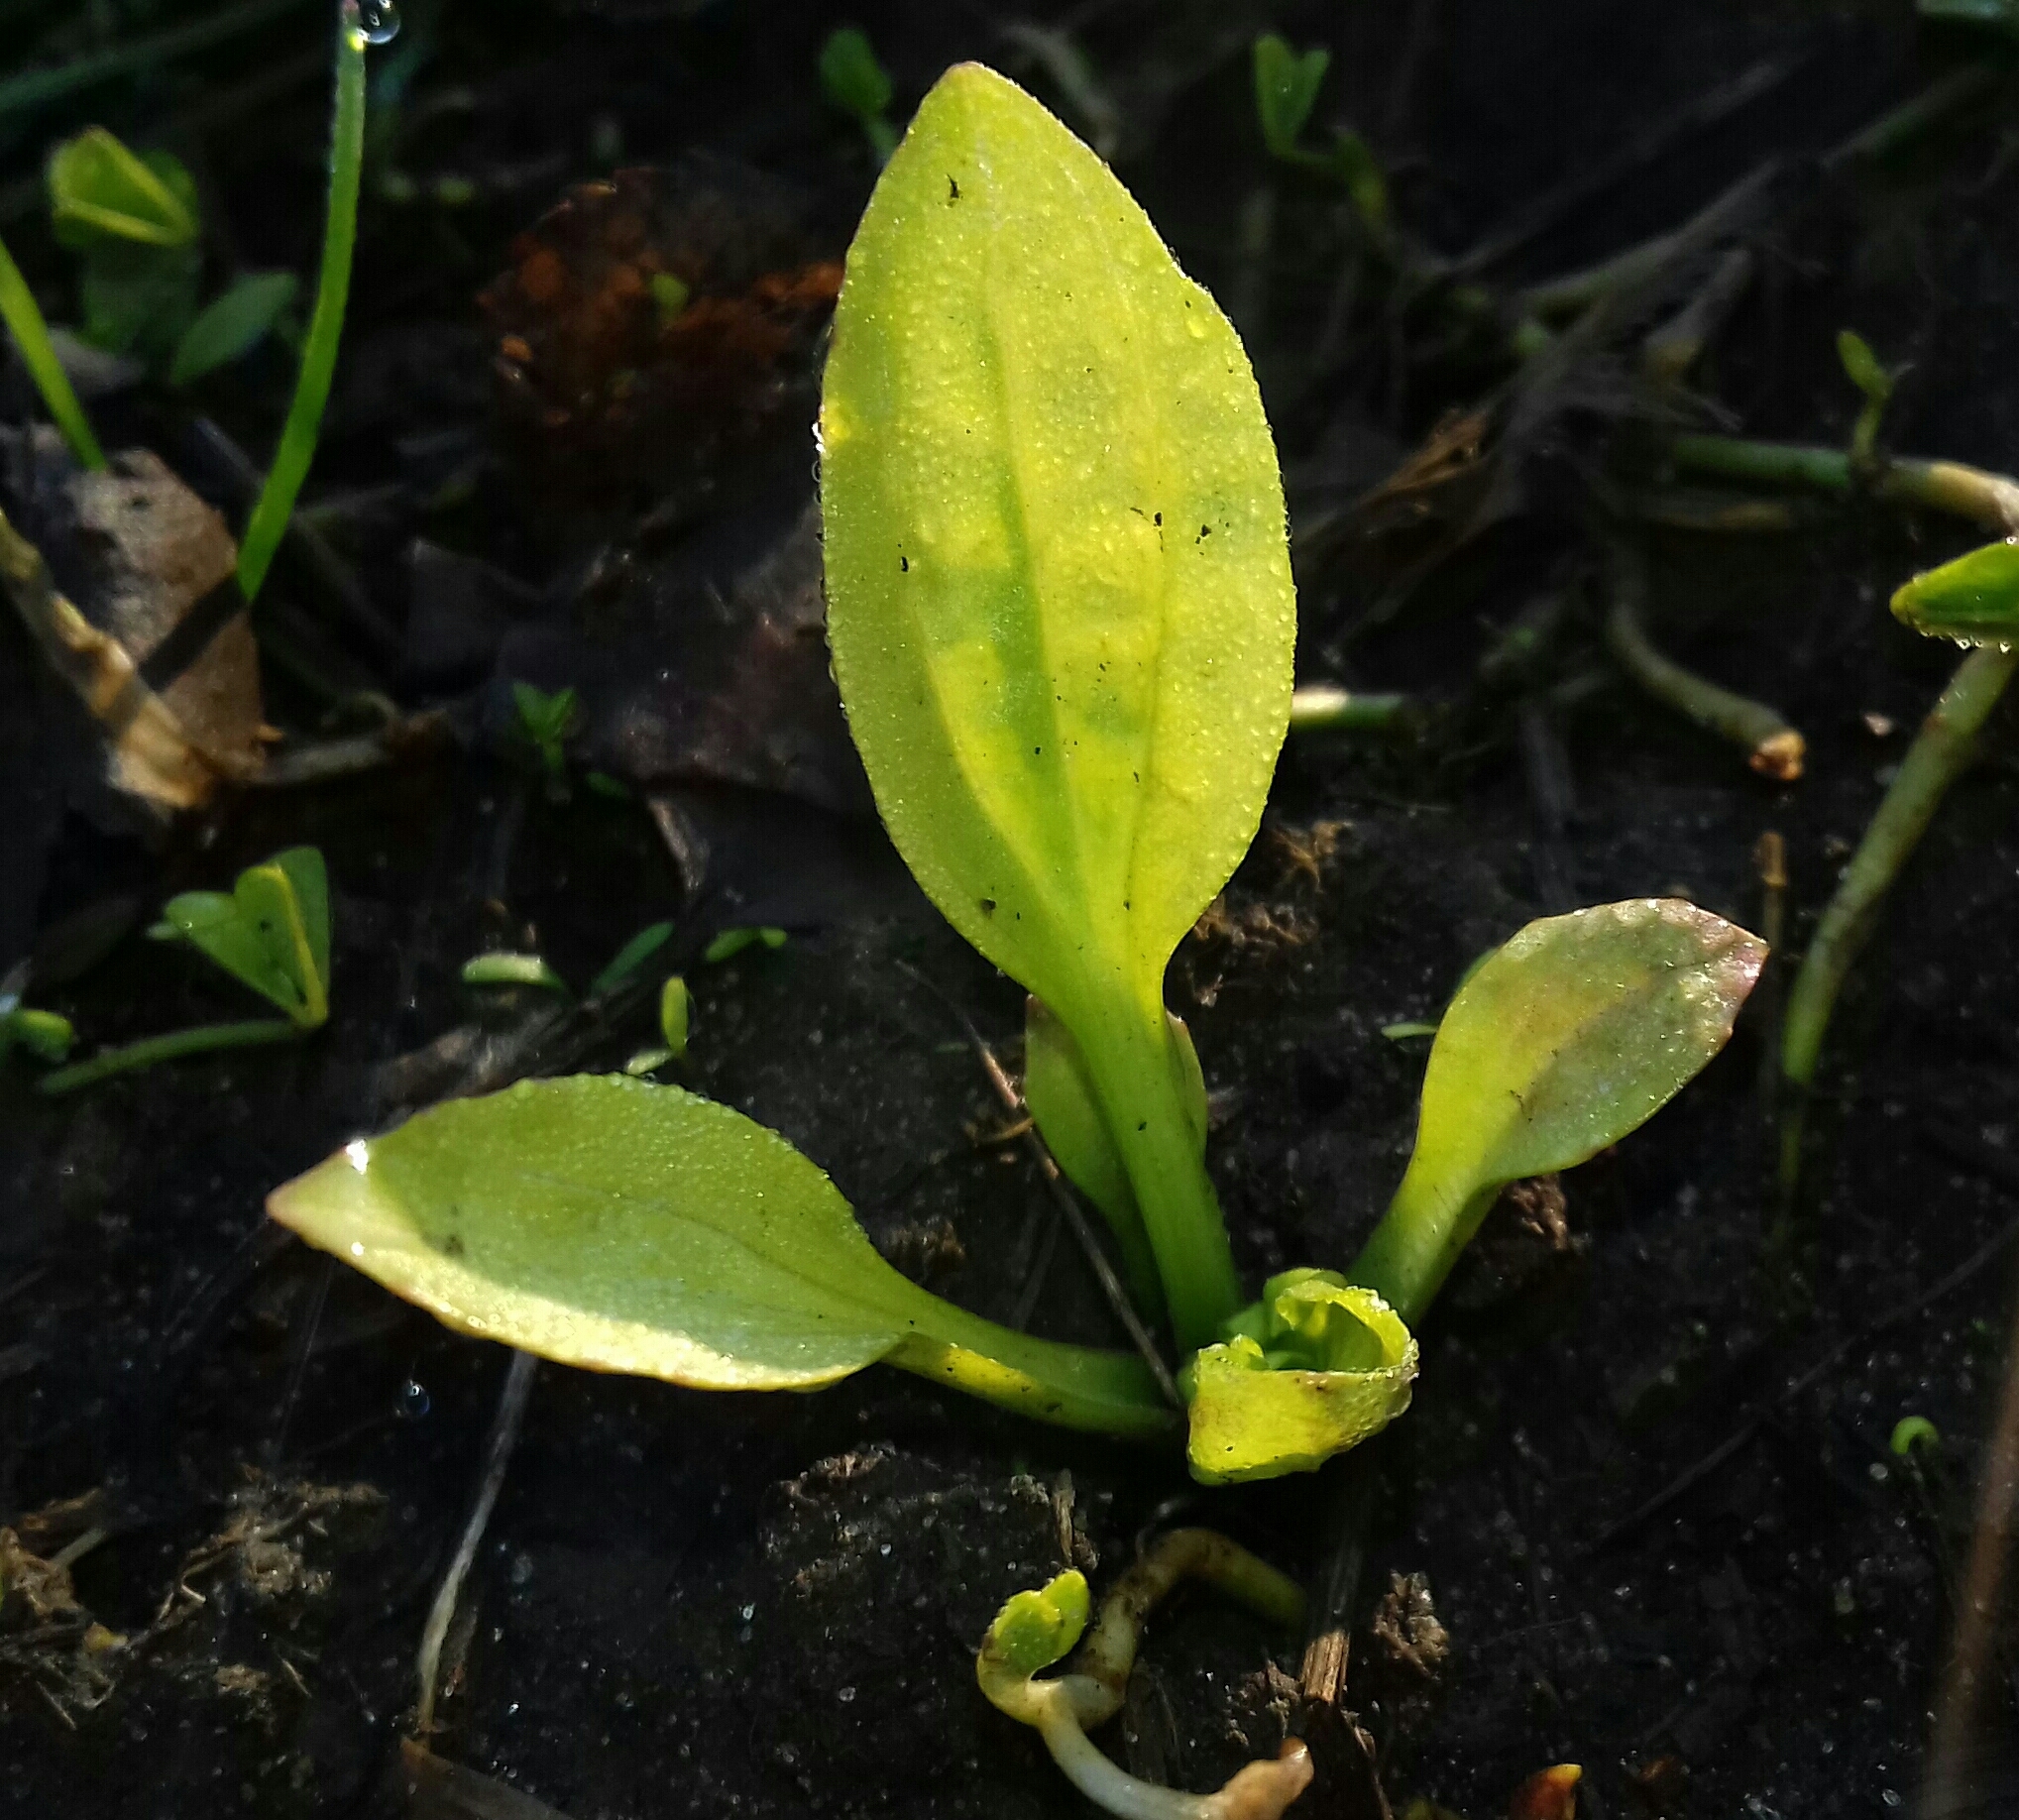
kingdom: Plantae
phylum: Tracheophyta
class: Magnoliopsida
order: Lamiales
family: Plantaginaceae
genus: Plantago
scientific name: Plantago major
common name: Common plantain
